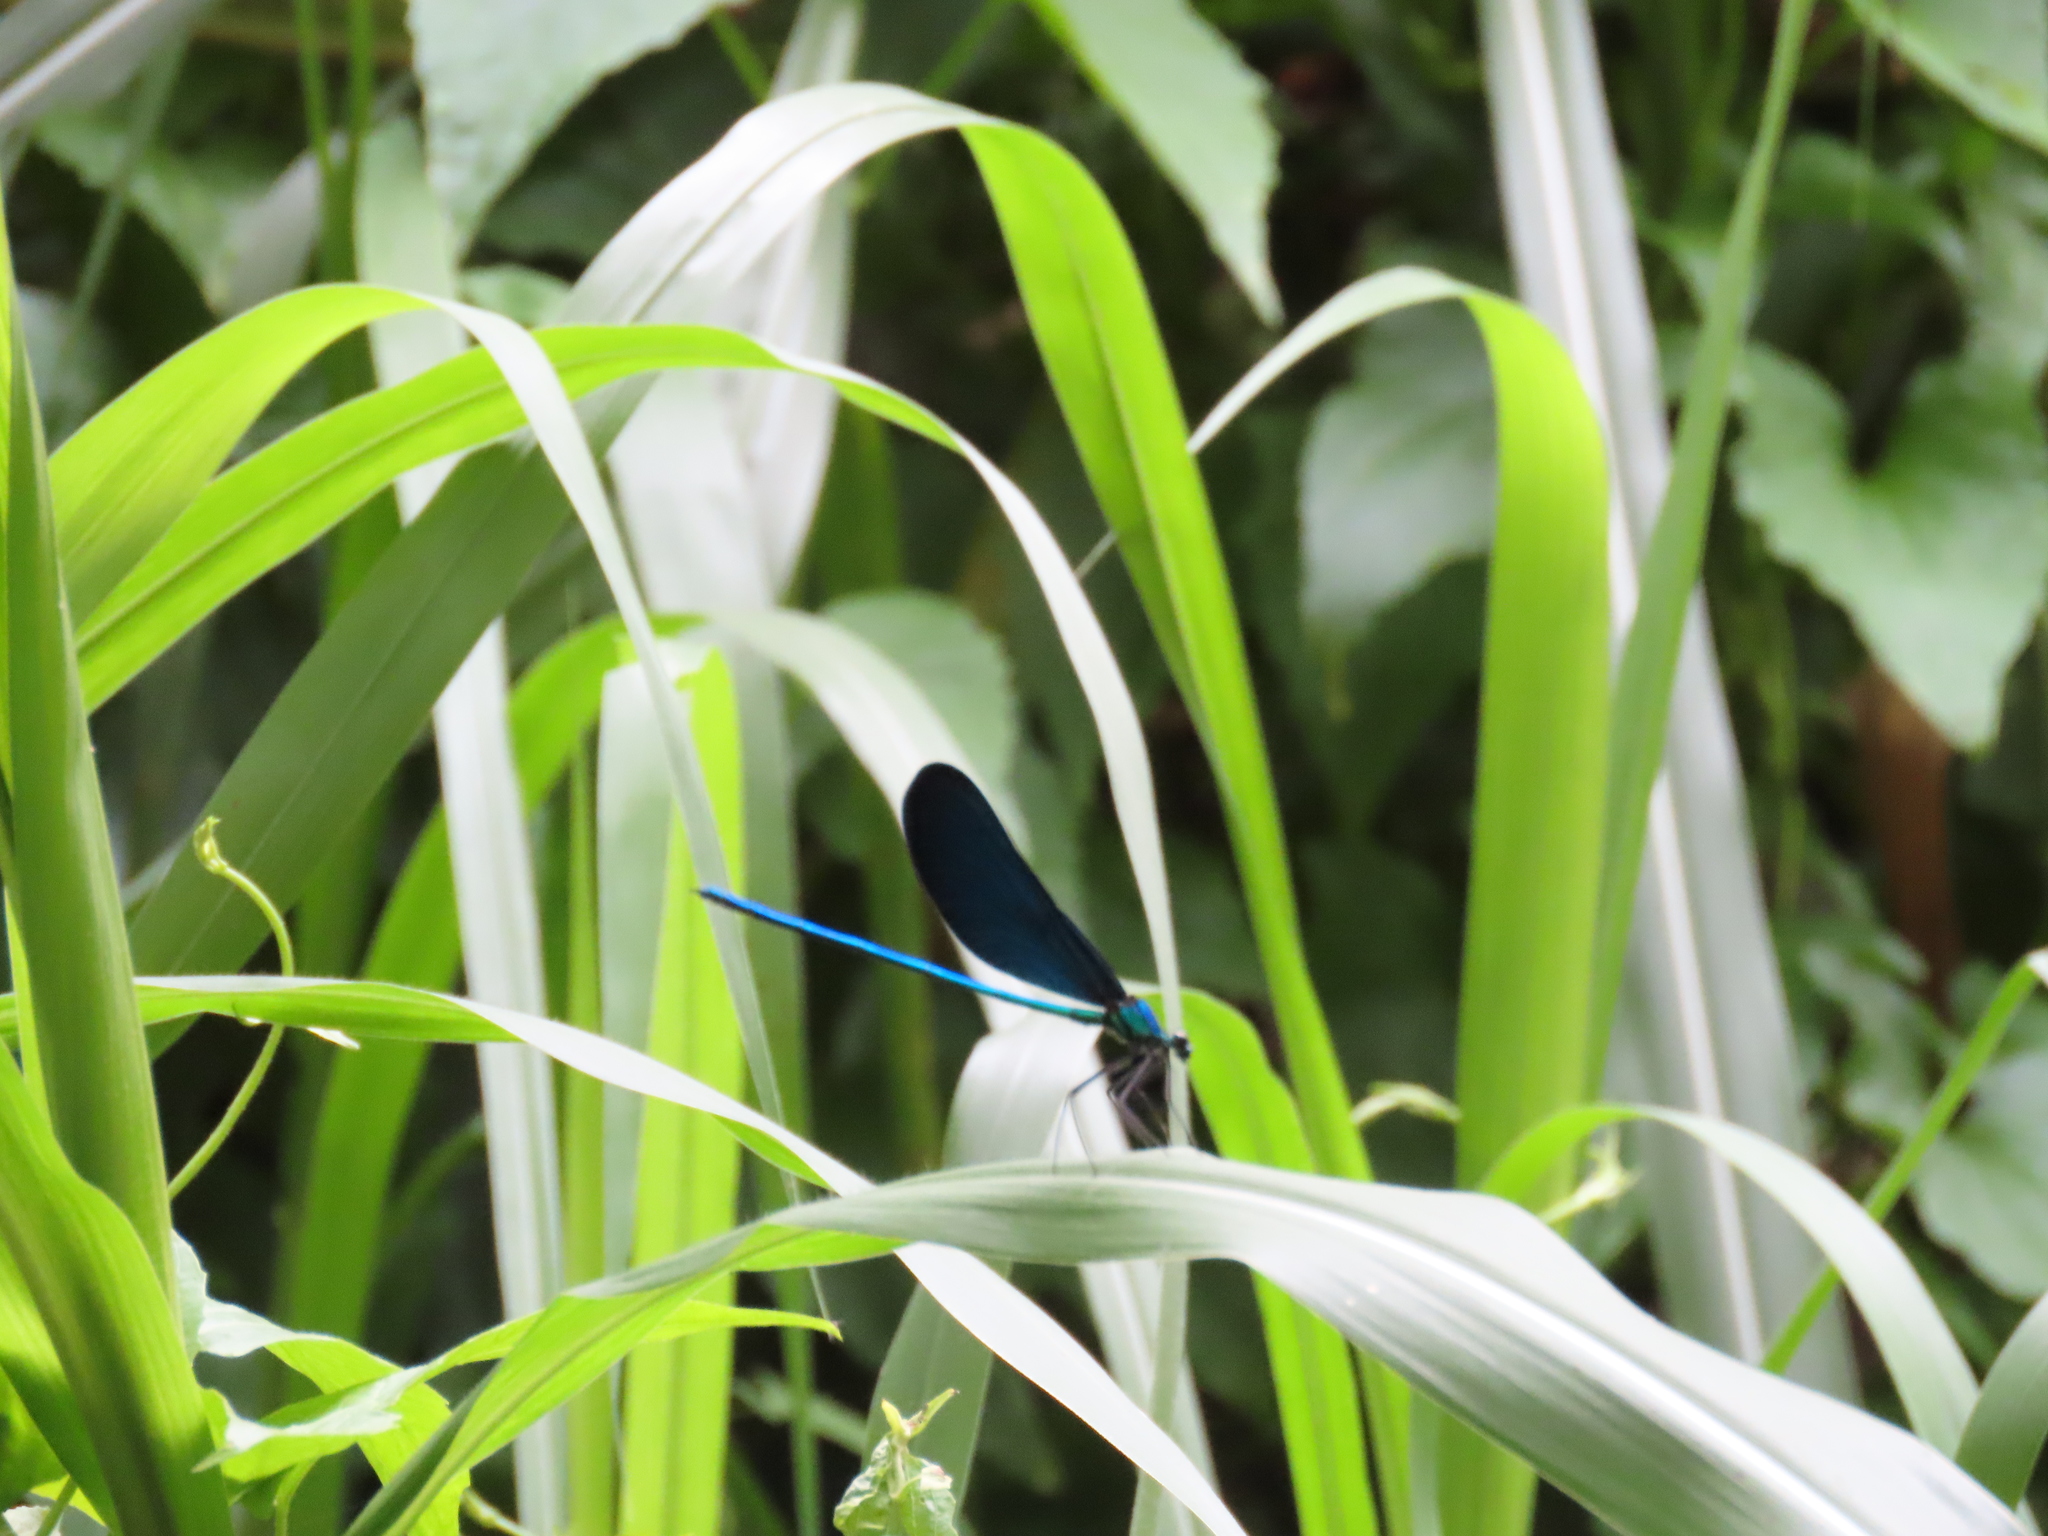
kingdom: Animalia
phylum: Arthropoda
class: Insecta
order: Odonata
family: Calopterygidae
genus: Matrona
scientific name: Matrona cyanoptera
